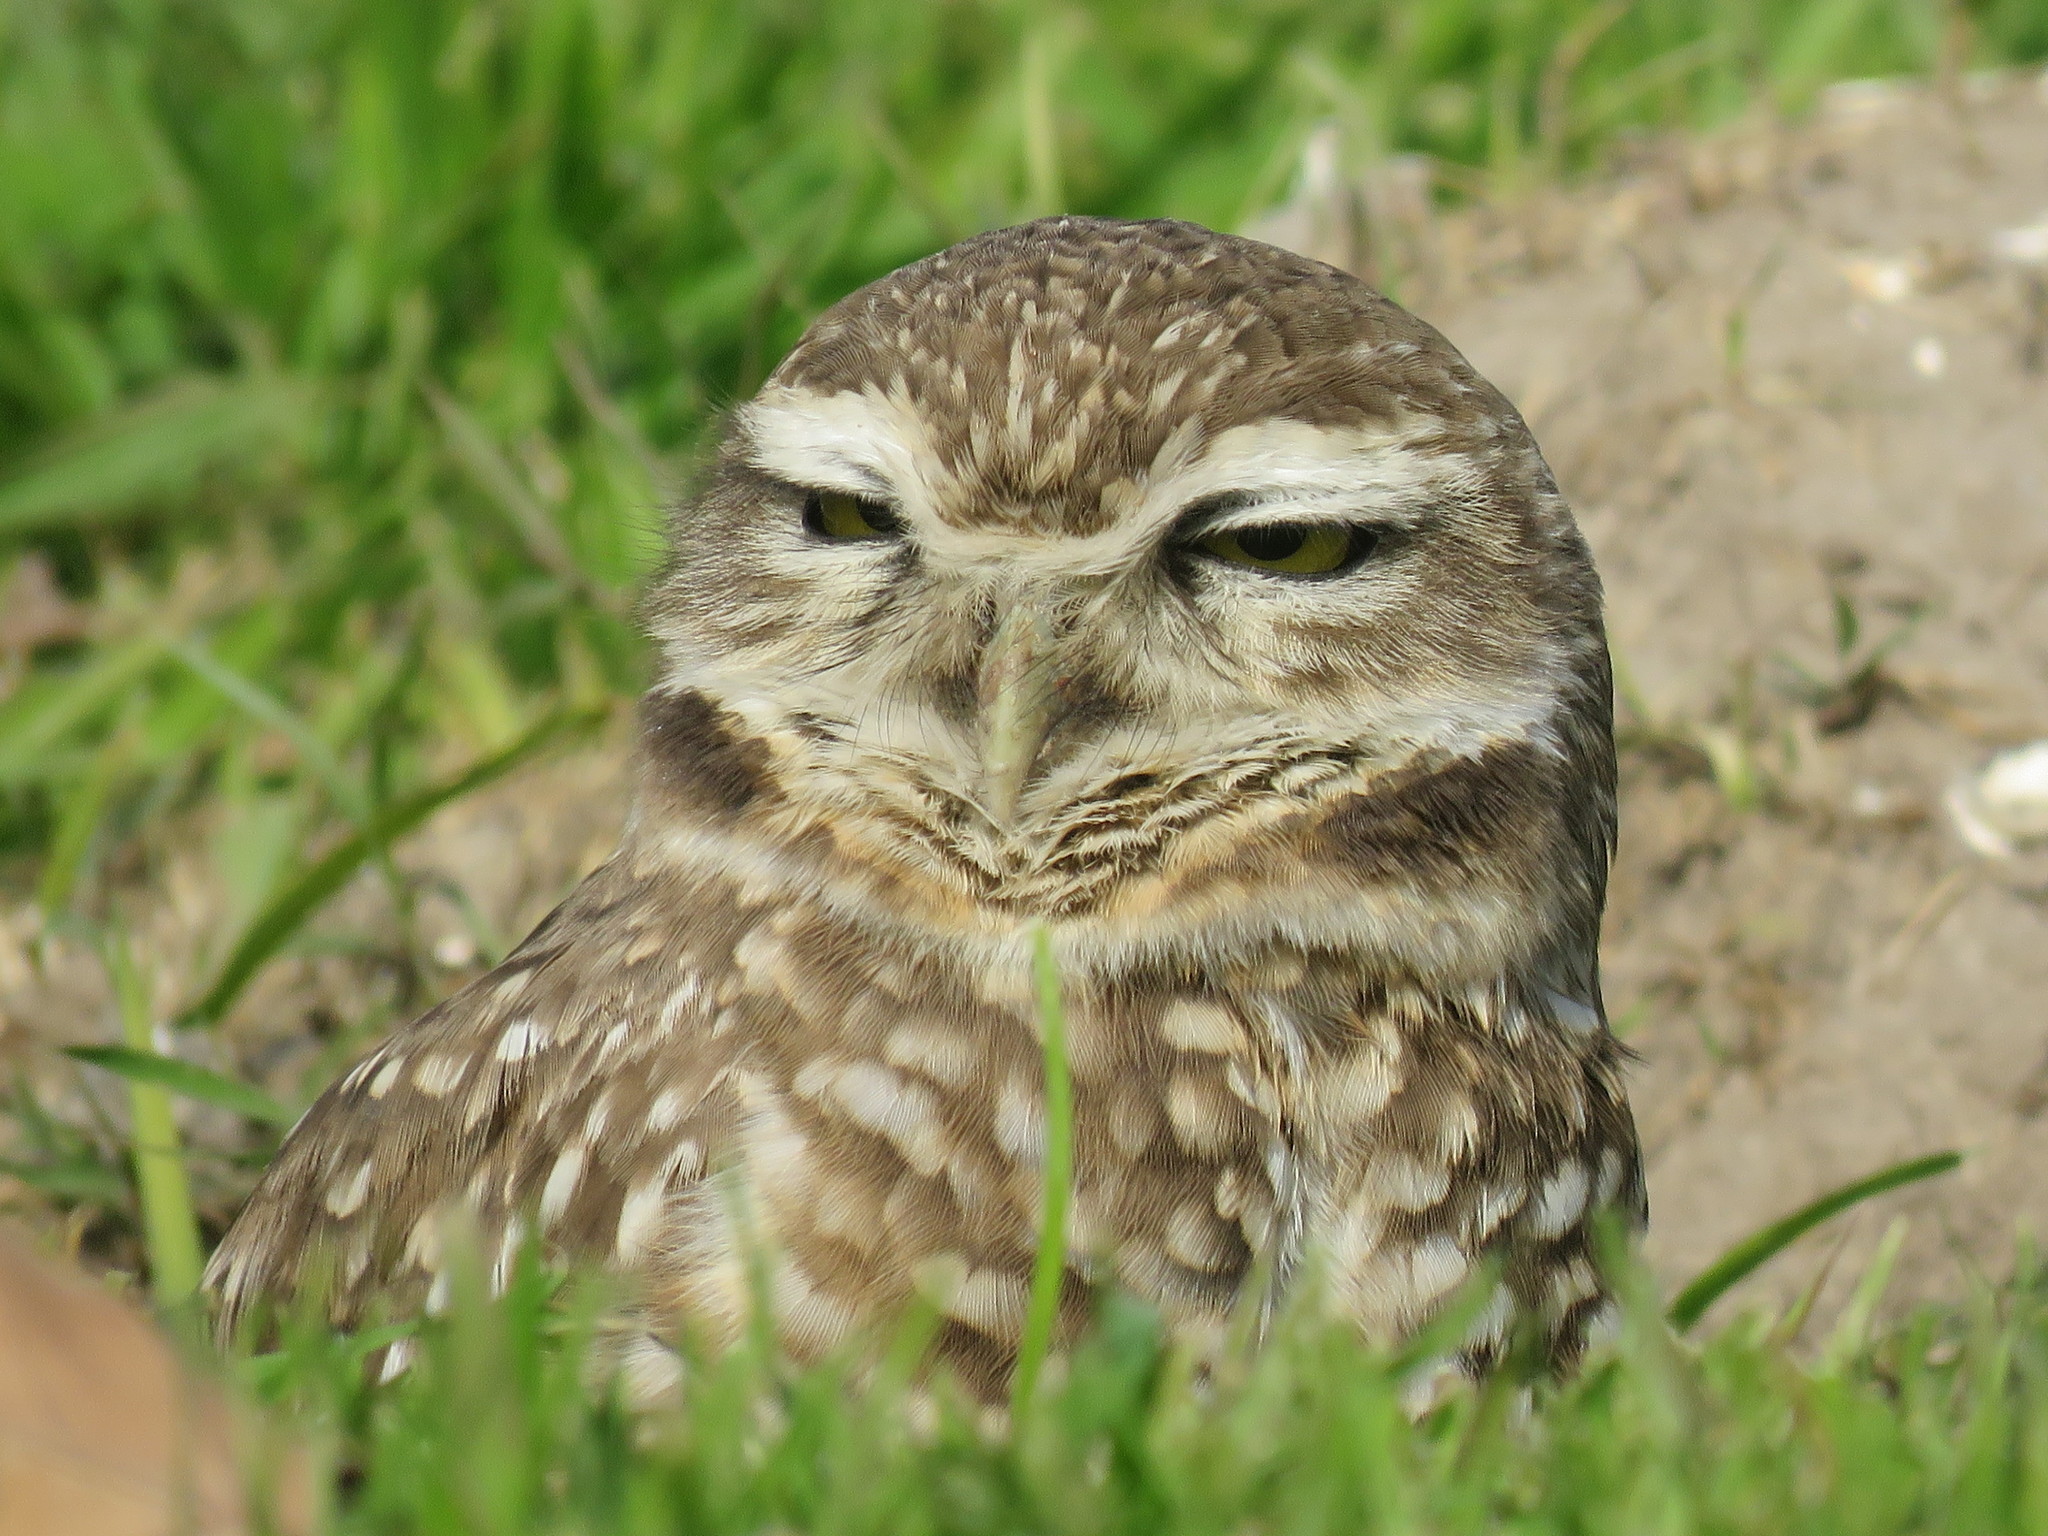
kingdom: Animalia
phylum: Chordata
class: Aves
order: Strigiformes
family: Strigidae
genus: Athene
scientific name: Athene cunicularia
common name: Burrowing owl
